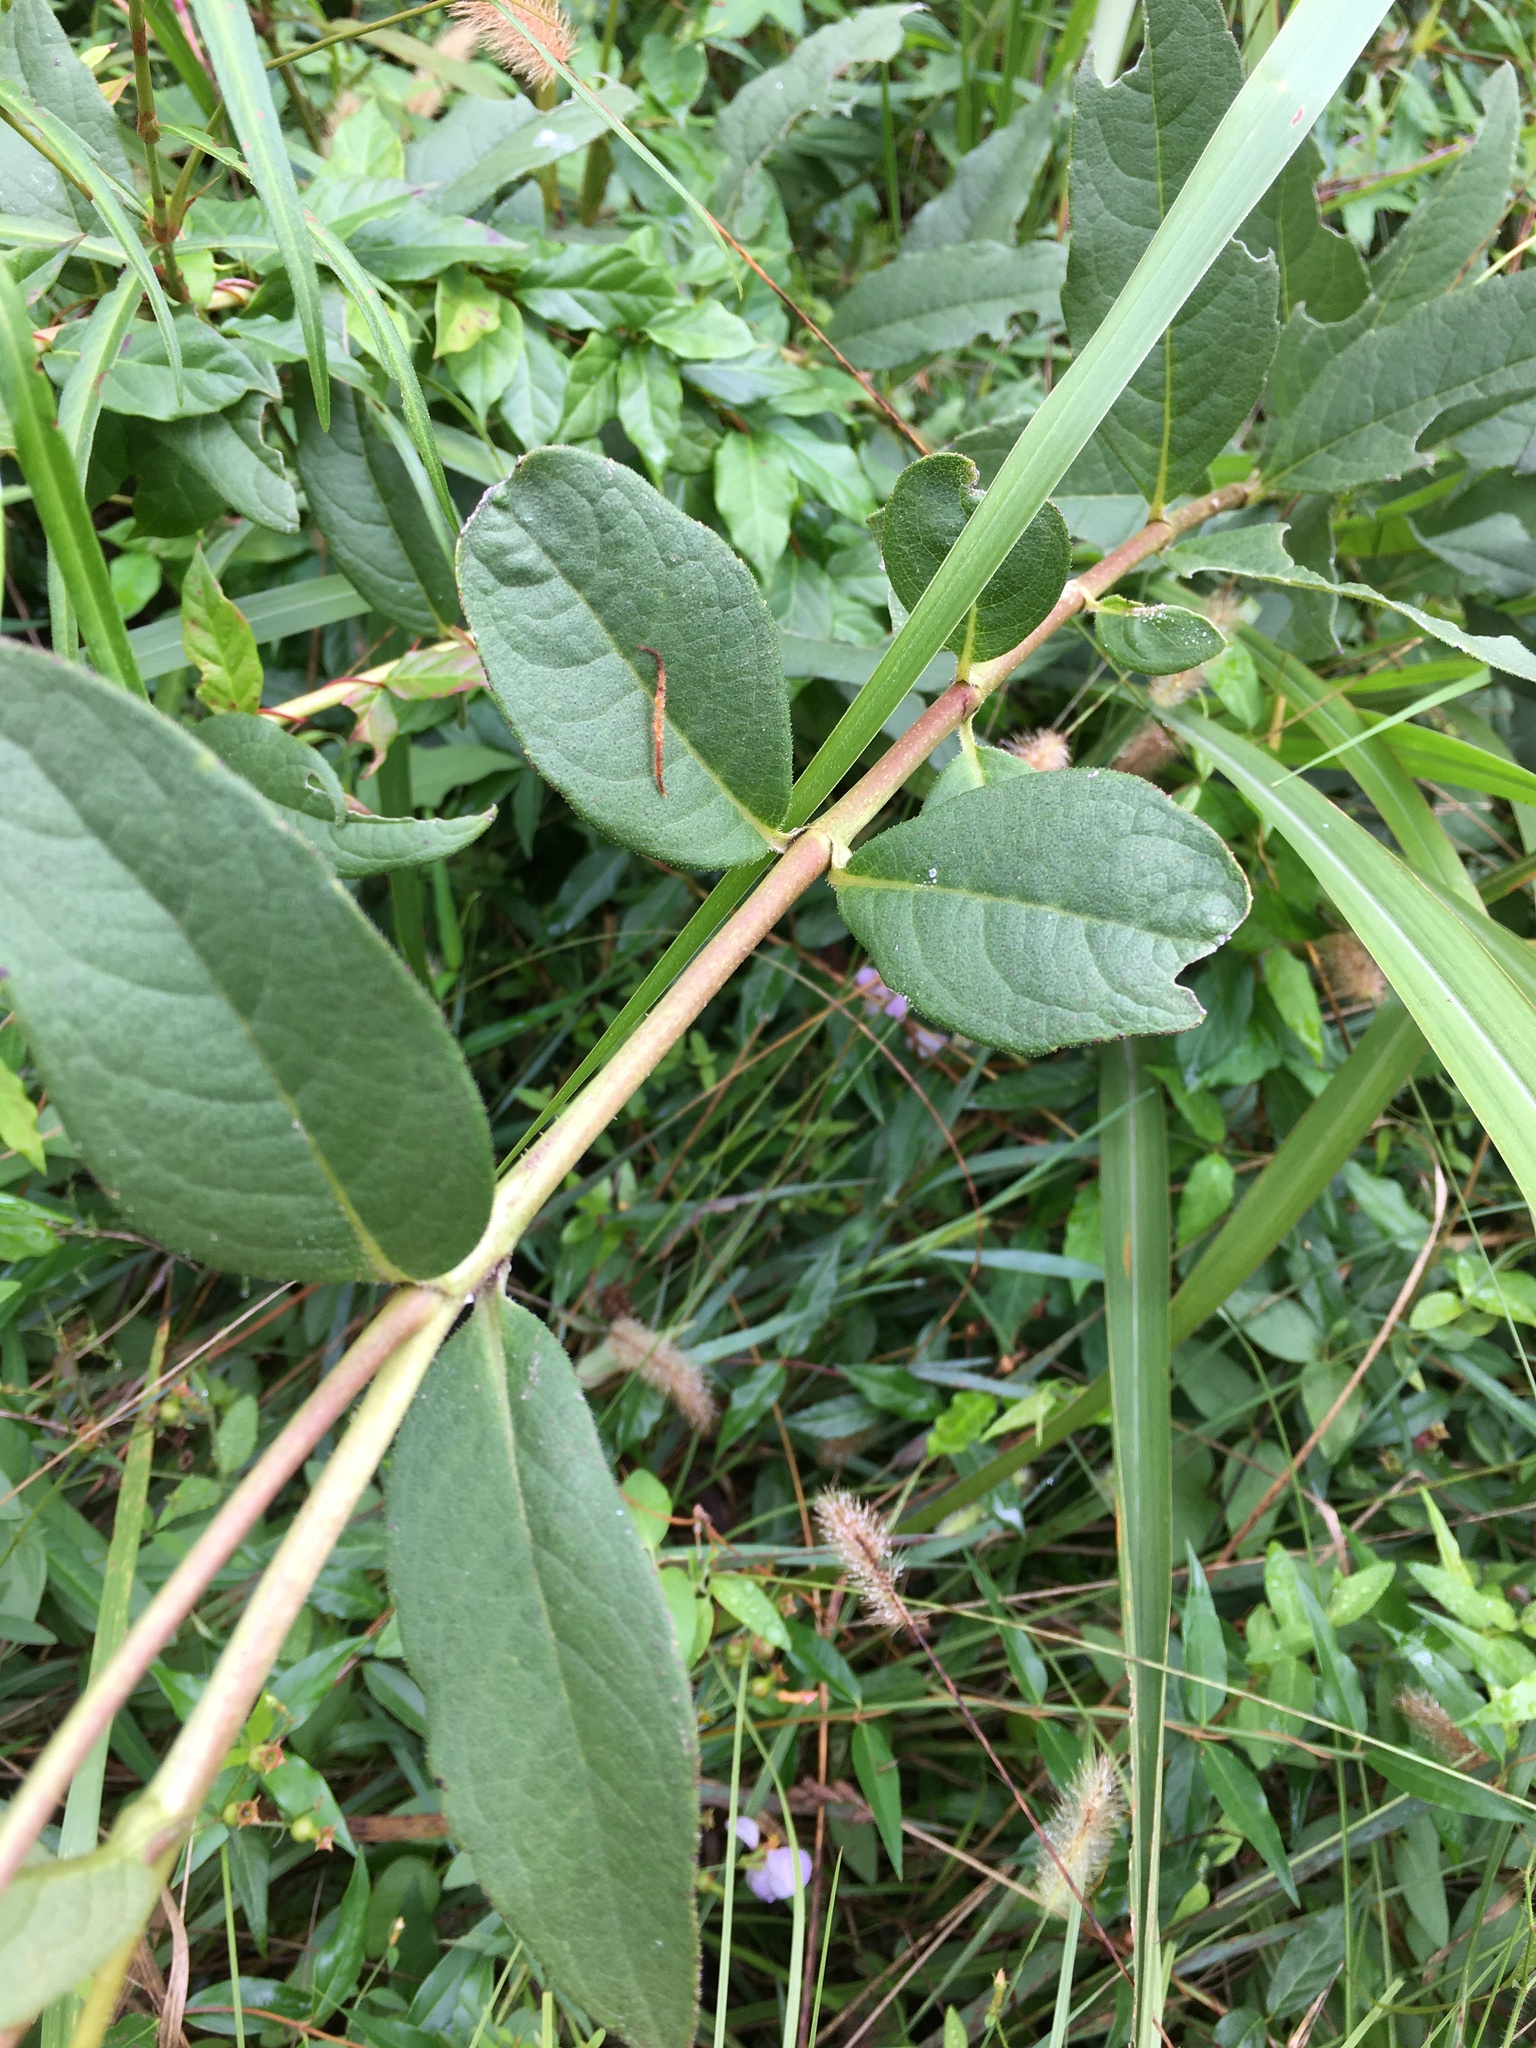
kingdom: Plantae
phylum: Tracheophyta
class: Magnoliopsida
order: Asterales
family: Asteraceae
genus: Silphium
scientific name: Silphium asteriscus
